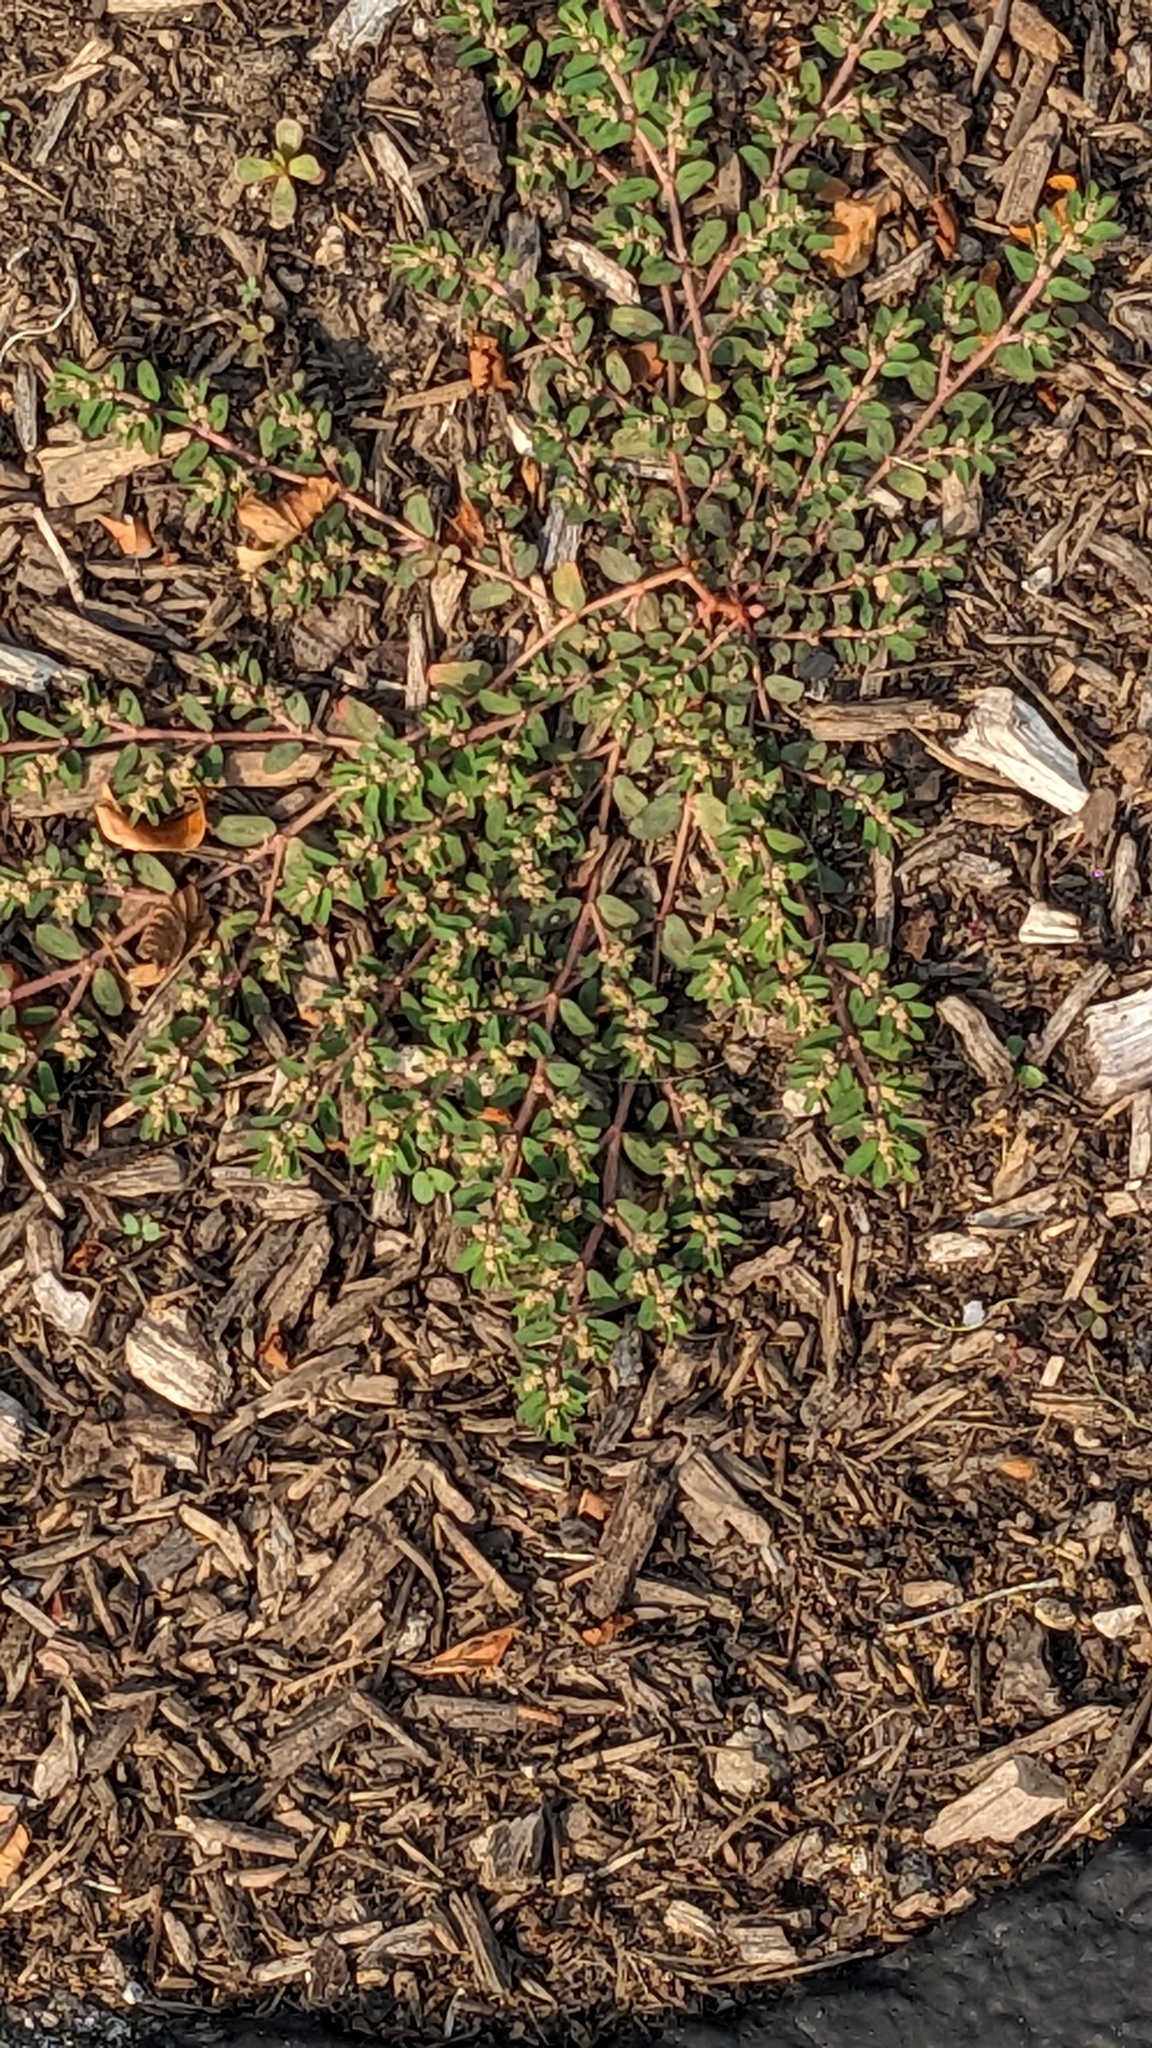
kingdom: Plantae
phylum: Tracheophyta
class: Magnoliopsida
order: Malpighiales
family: Euphorbiaceae
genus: Euphorbia
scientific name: Euphorbia maculata
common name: Spotted spurge
